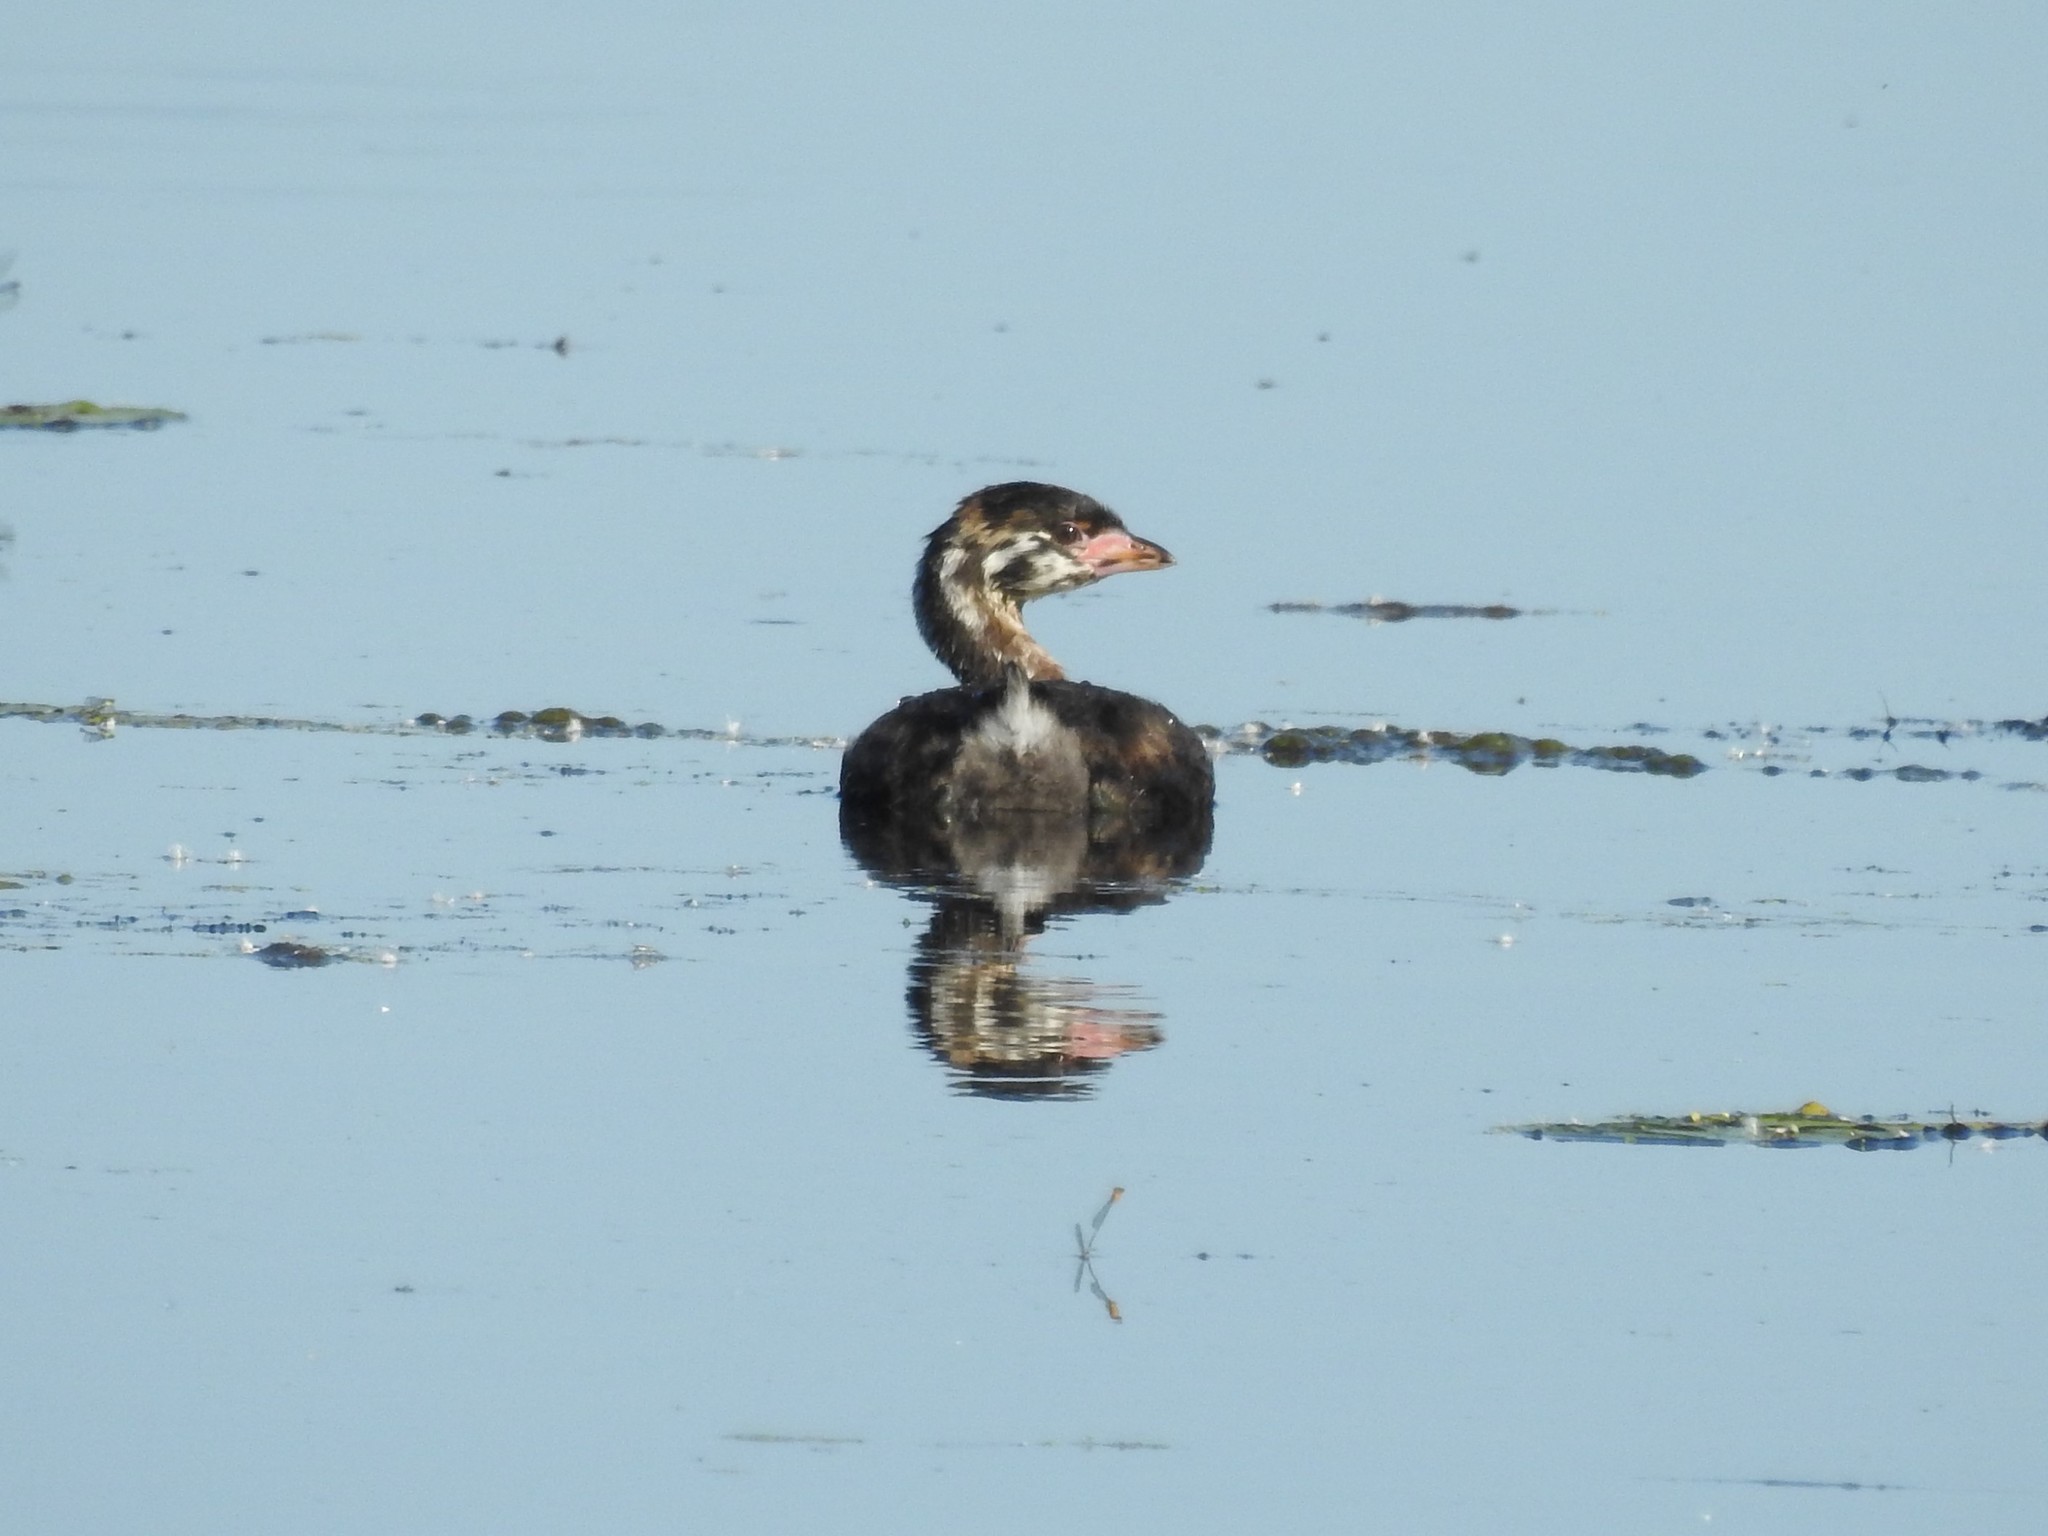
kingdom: Animalia
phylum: Chordata
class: Aves
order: Podicipediformes
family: Podicipedidae
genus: Podilymbus
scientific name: Podilymbus podiceps
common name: Pied-billed grebe
